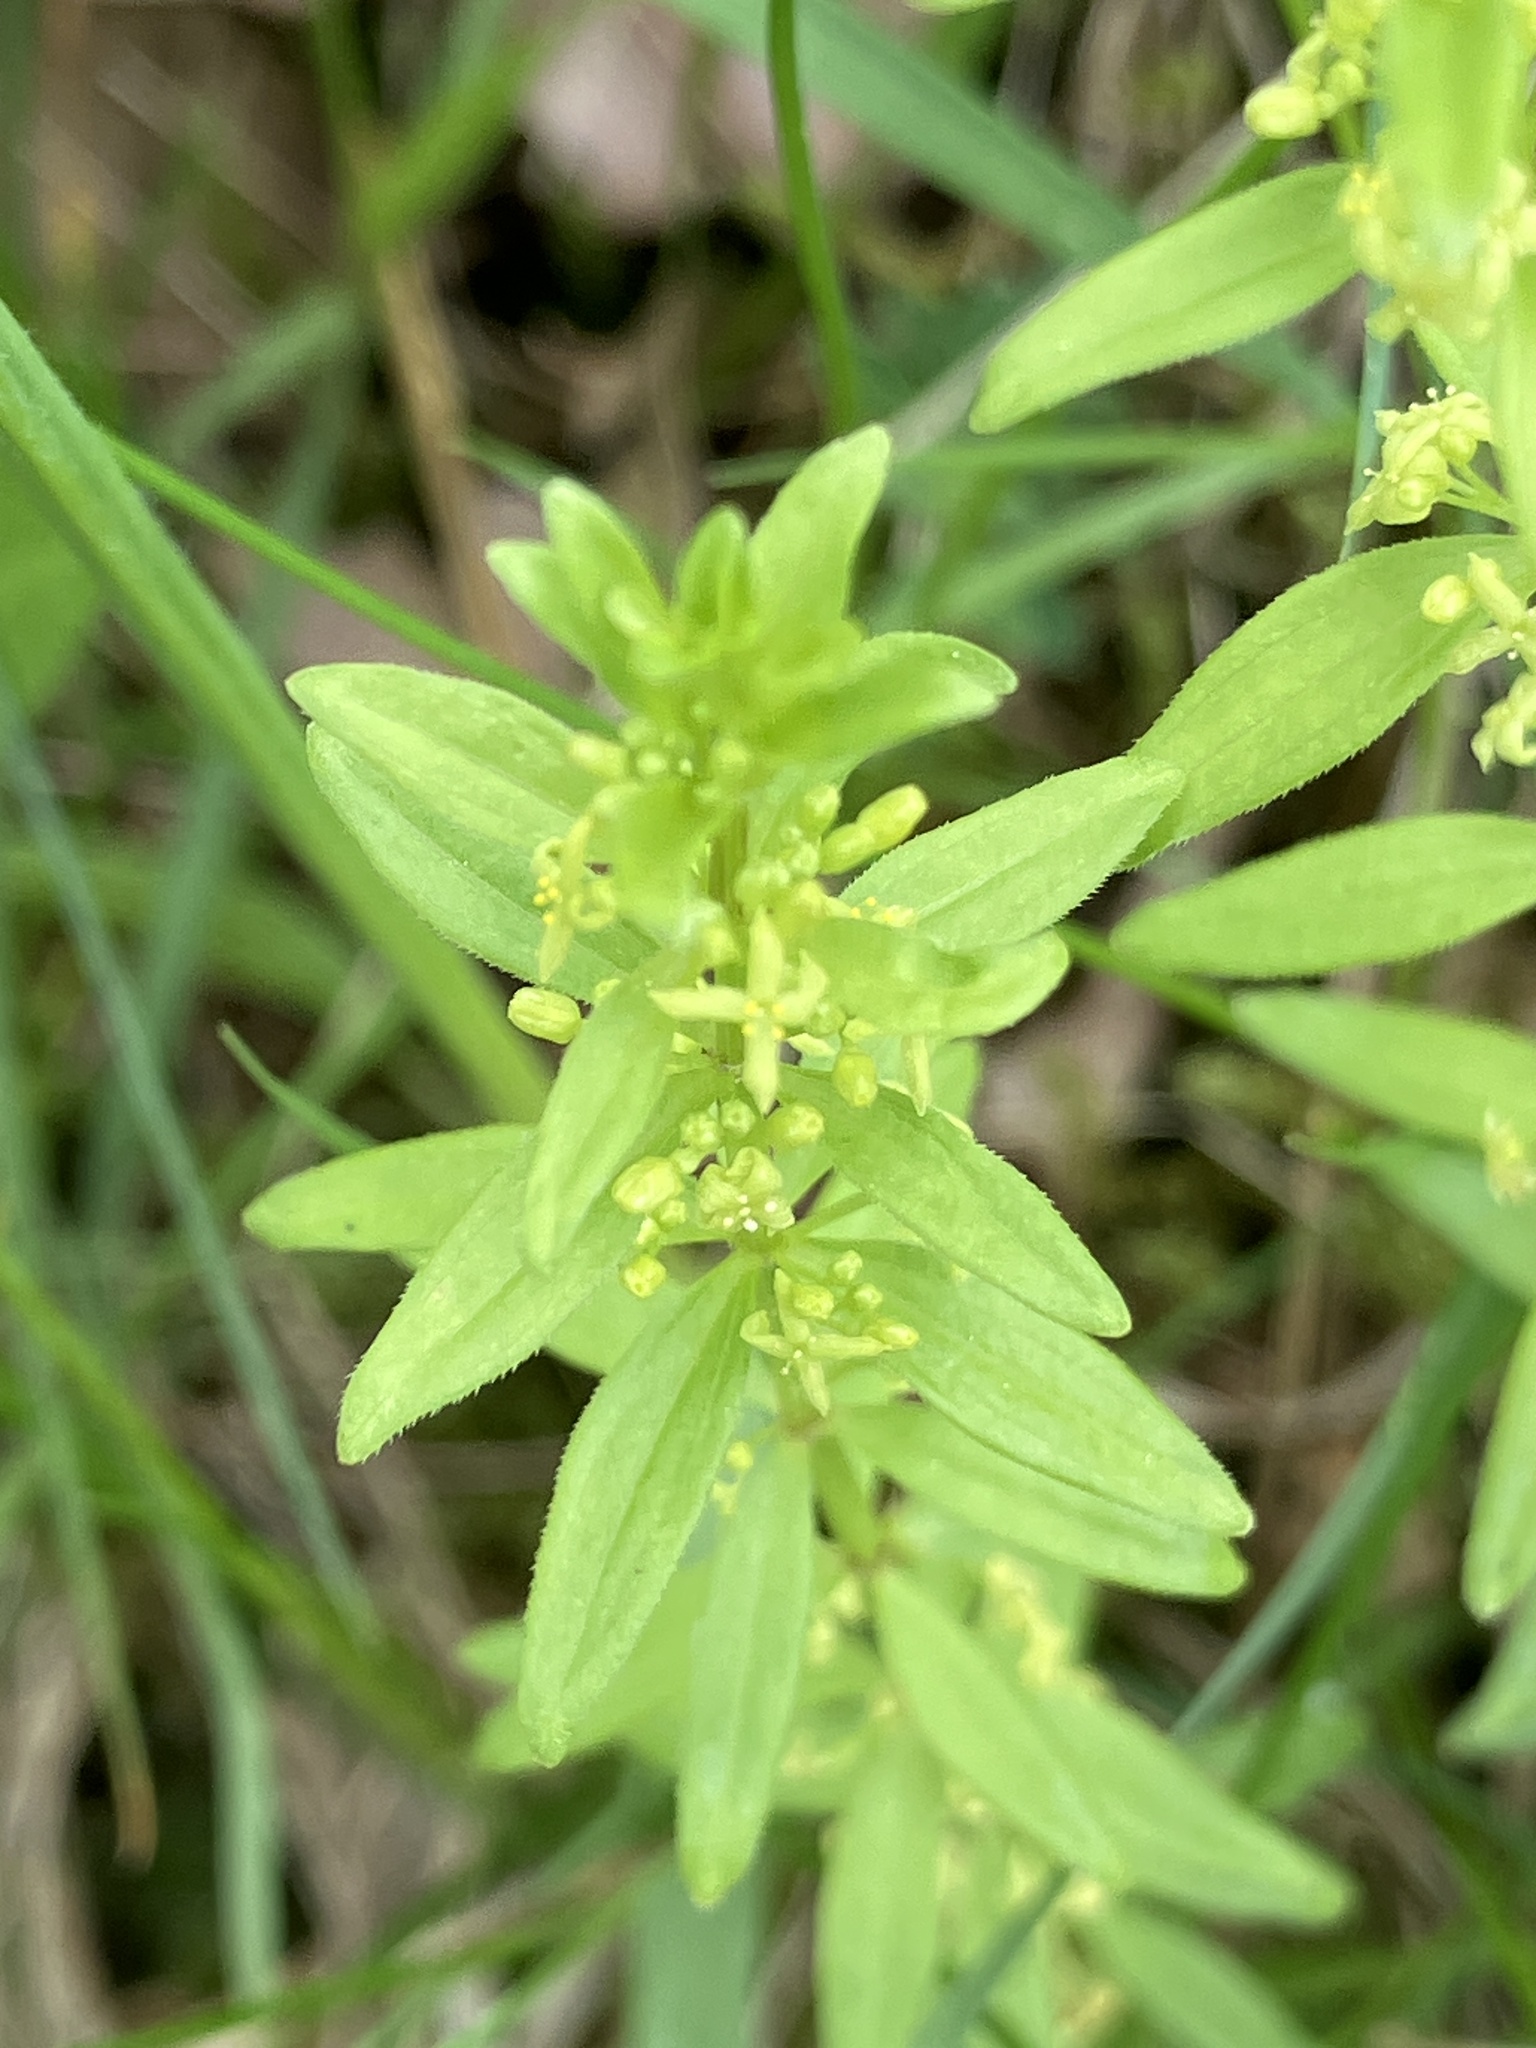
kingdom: Plantae
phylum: Tracheophyta
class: Magnoliopsida
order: Gentianales
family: Rubiaceae
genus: Cruciata
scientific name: Cruciata glabra
